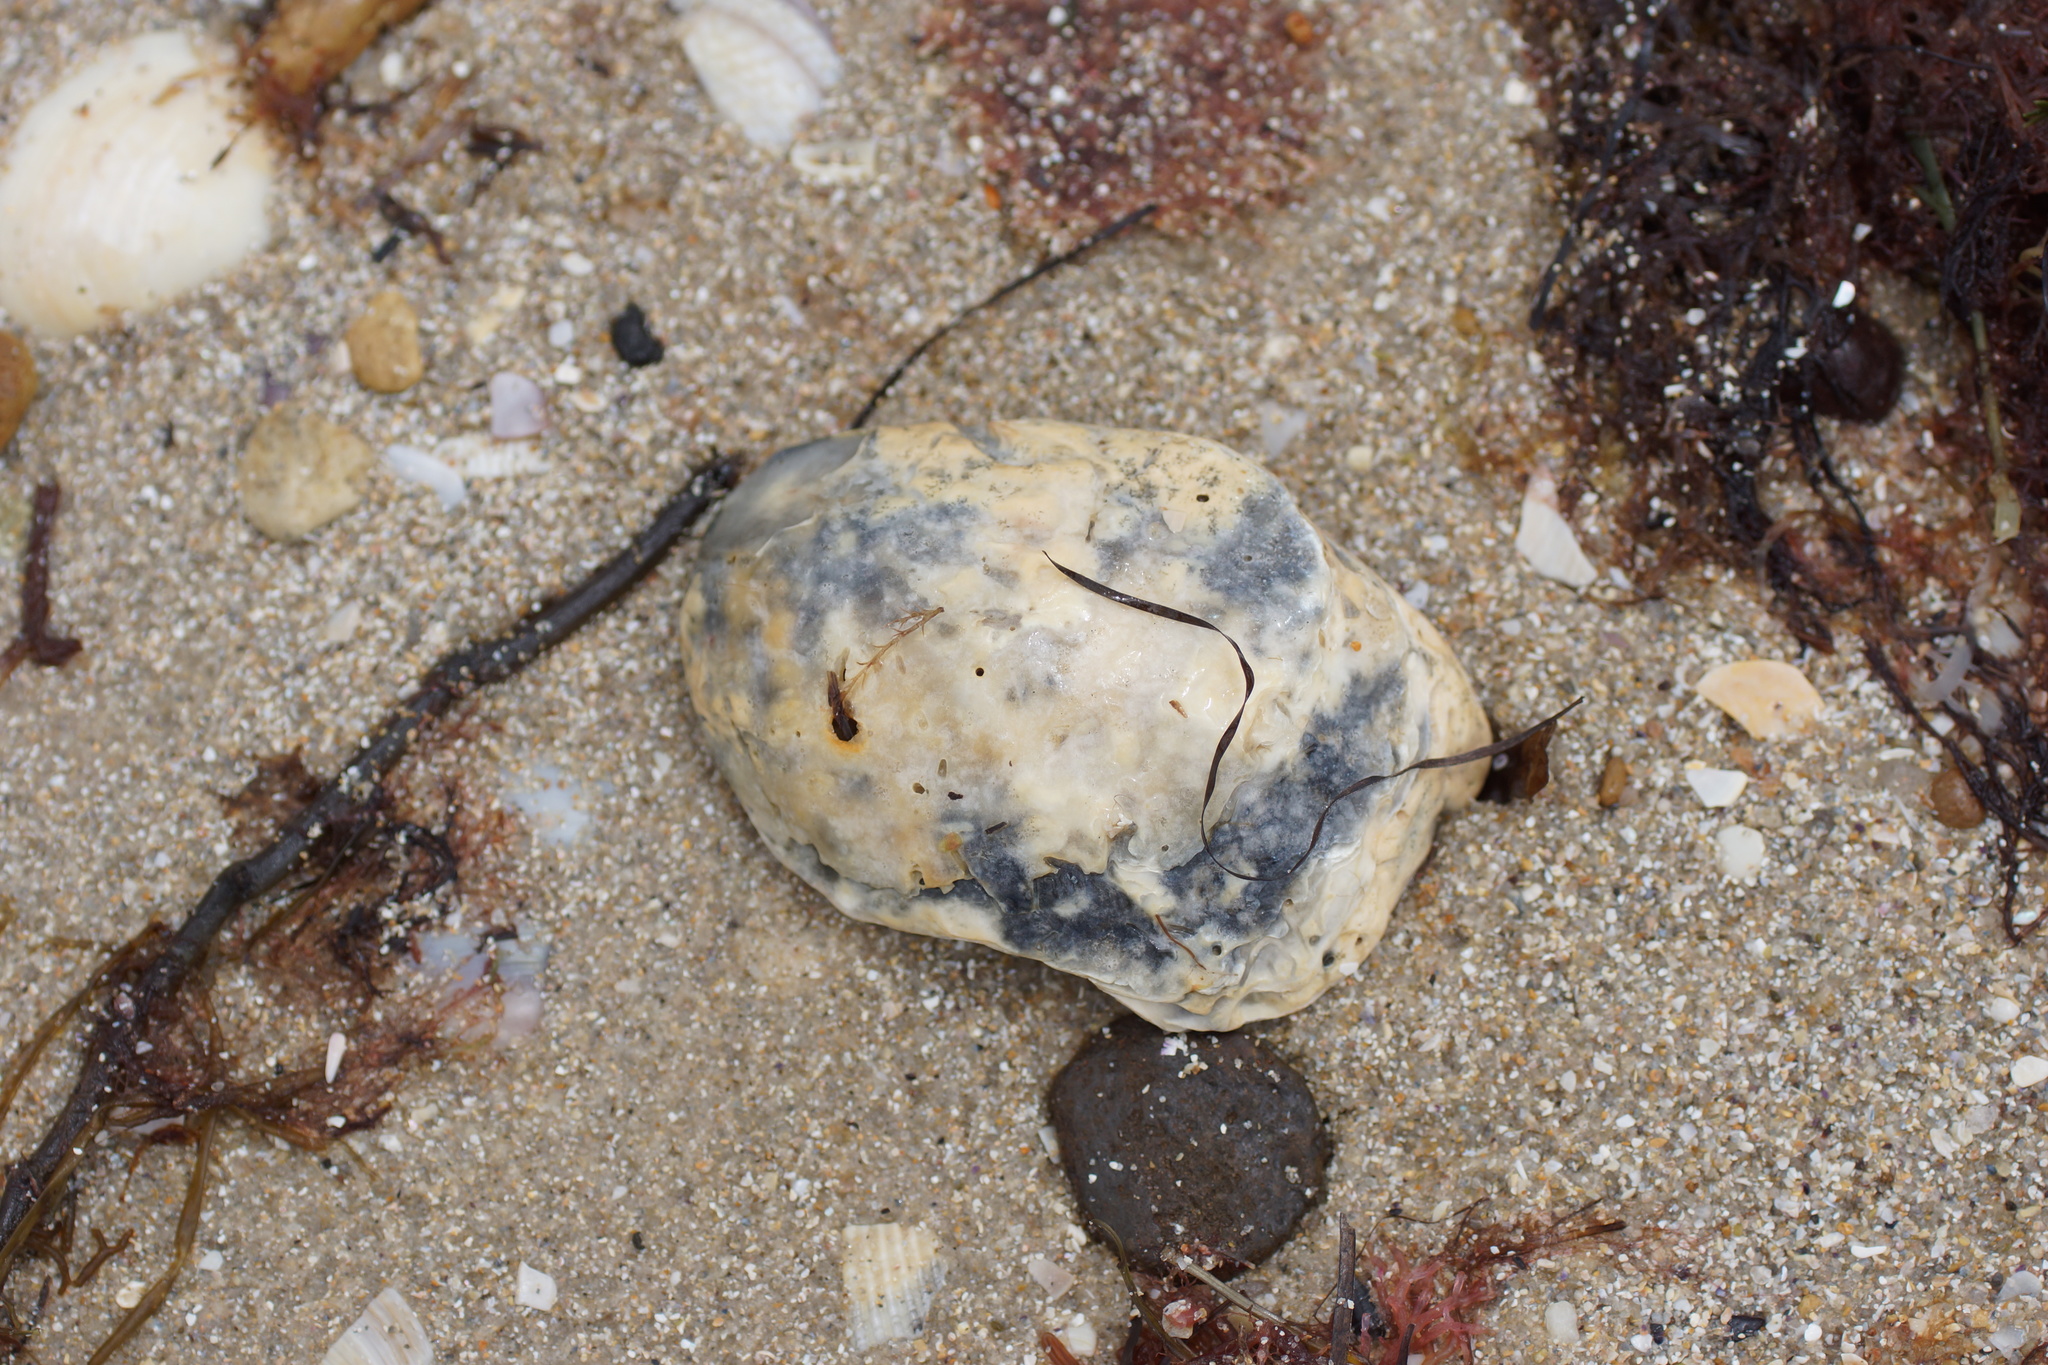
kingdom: Animalia
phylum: Mollusca
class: Bivalvia
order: Ostreida
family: Ostreidae
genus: Ostrea
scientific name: Ostrea angasi
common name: Angasi oyster
